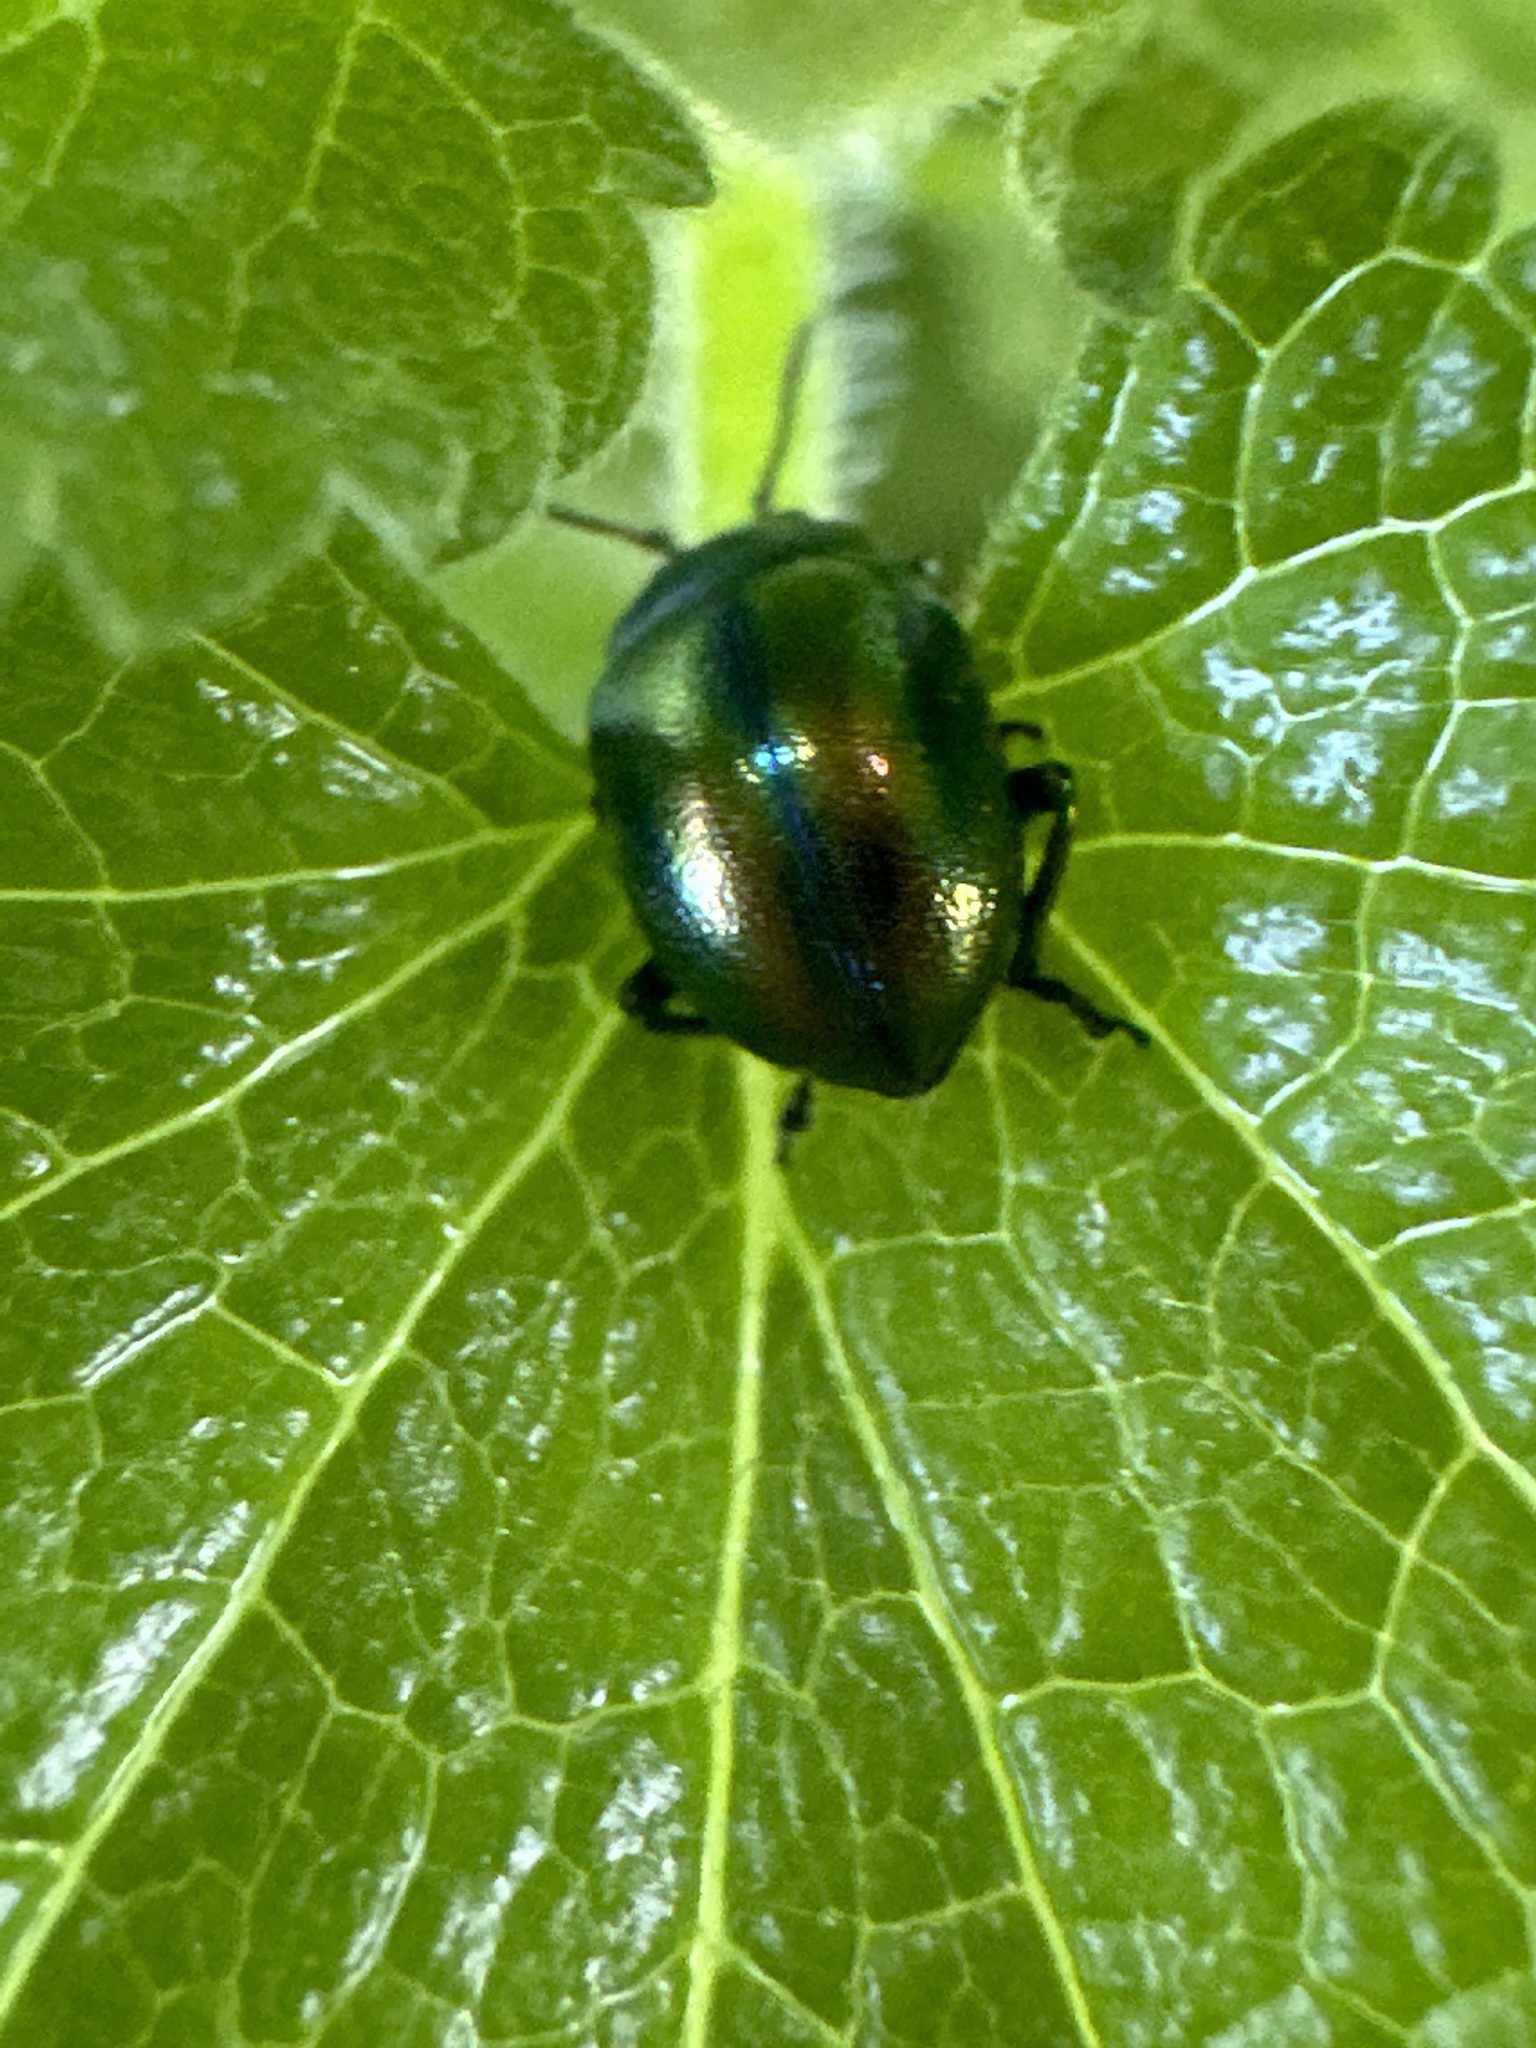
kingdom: Animalia
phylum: Arthropoda
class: Insecta
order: Coleoptera
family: Chrysomelidae
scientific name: Chrysomelidae
